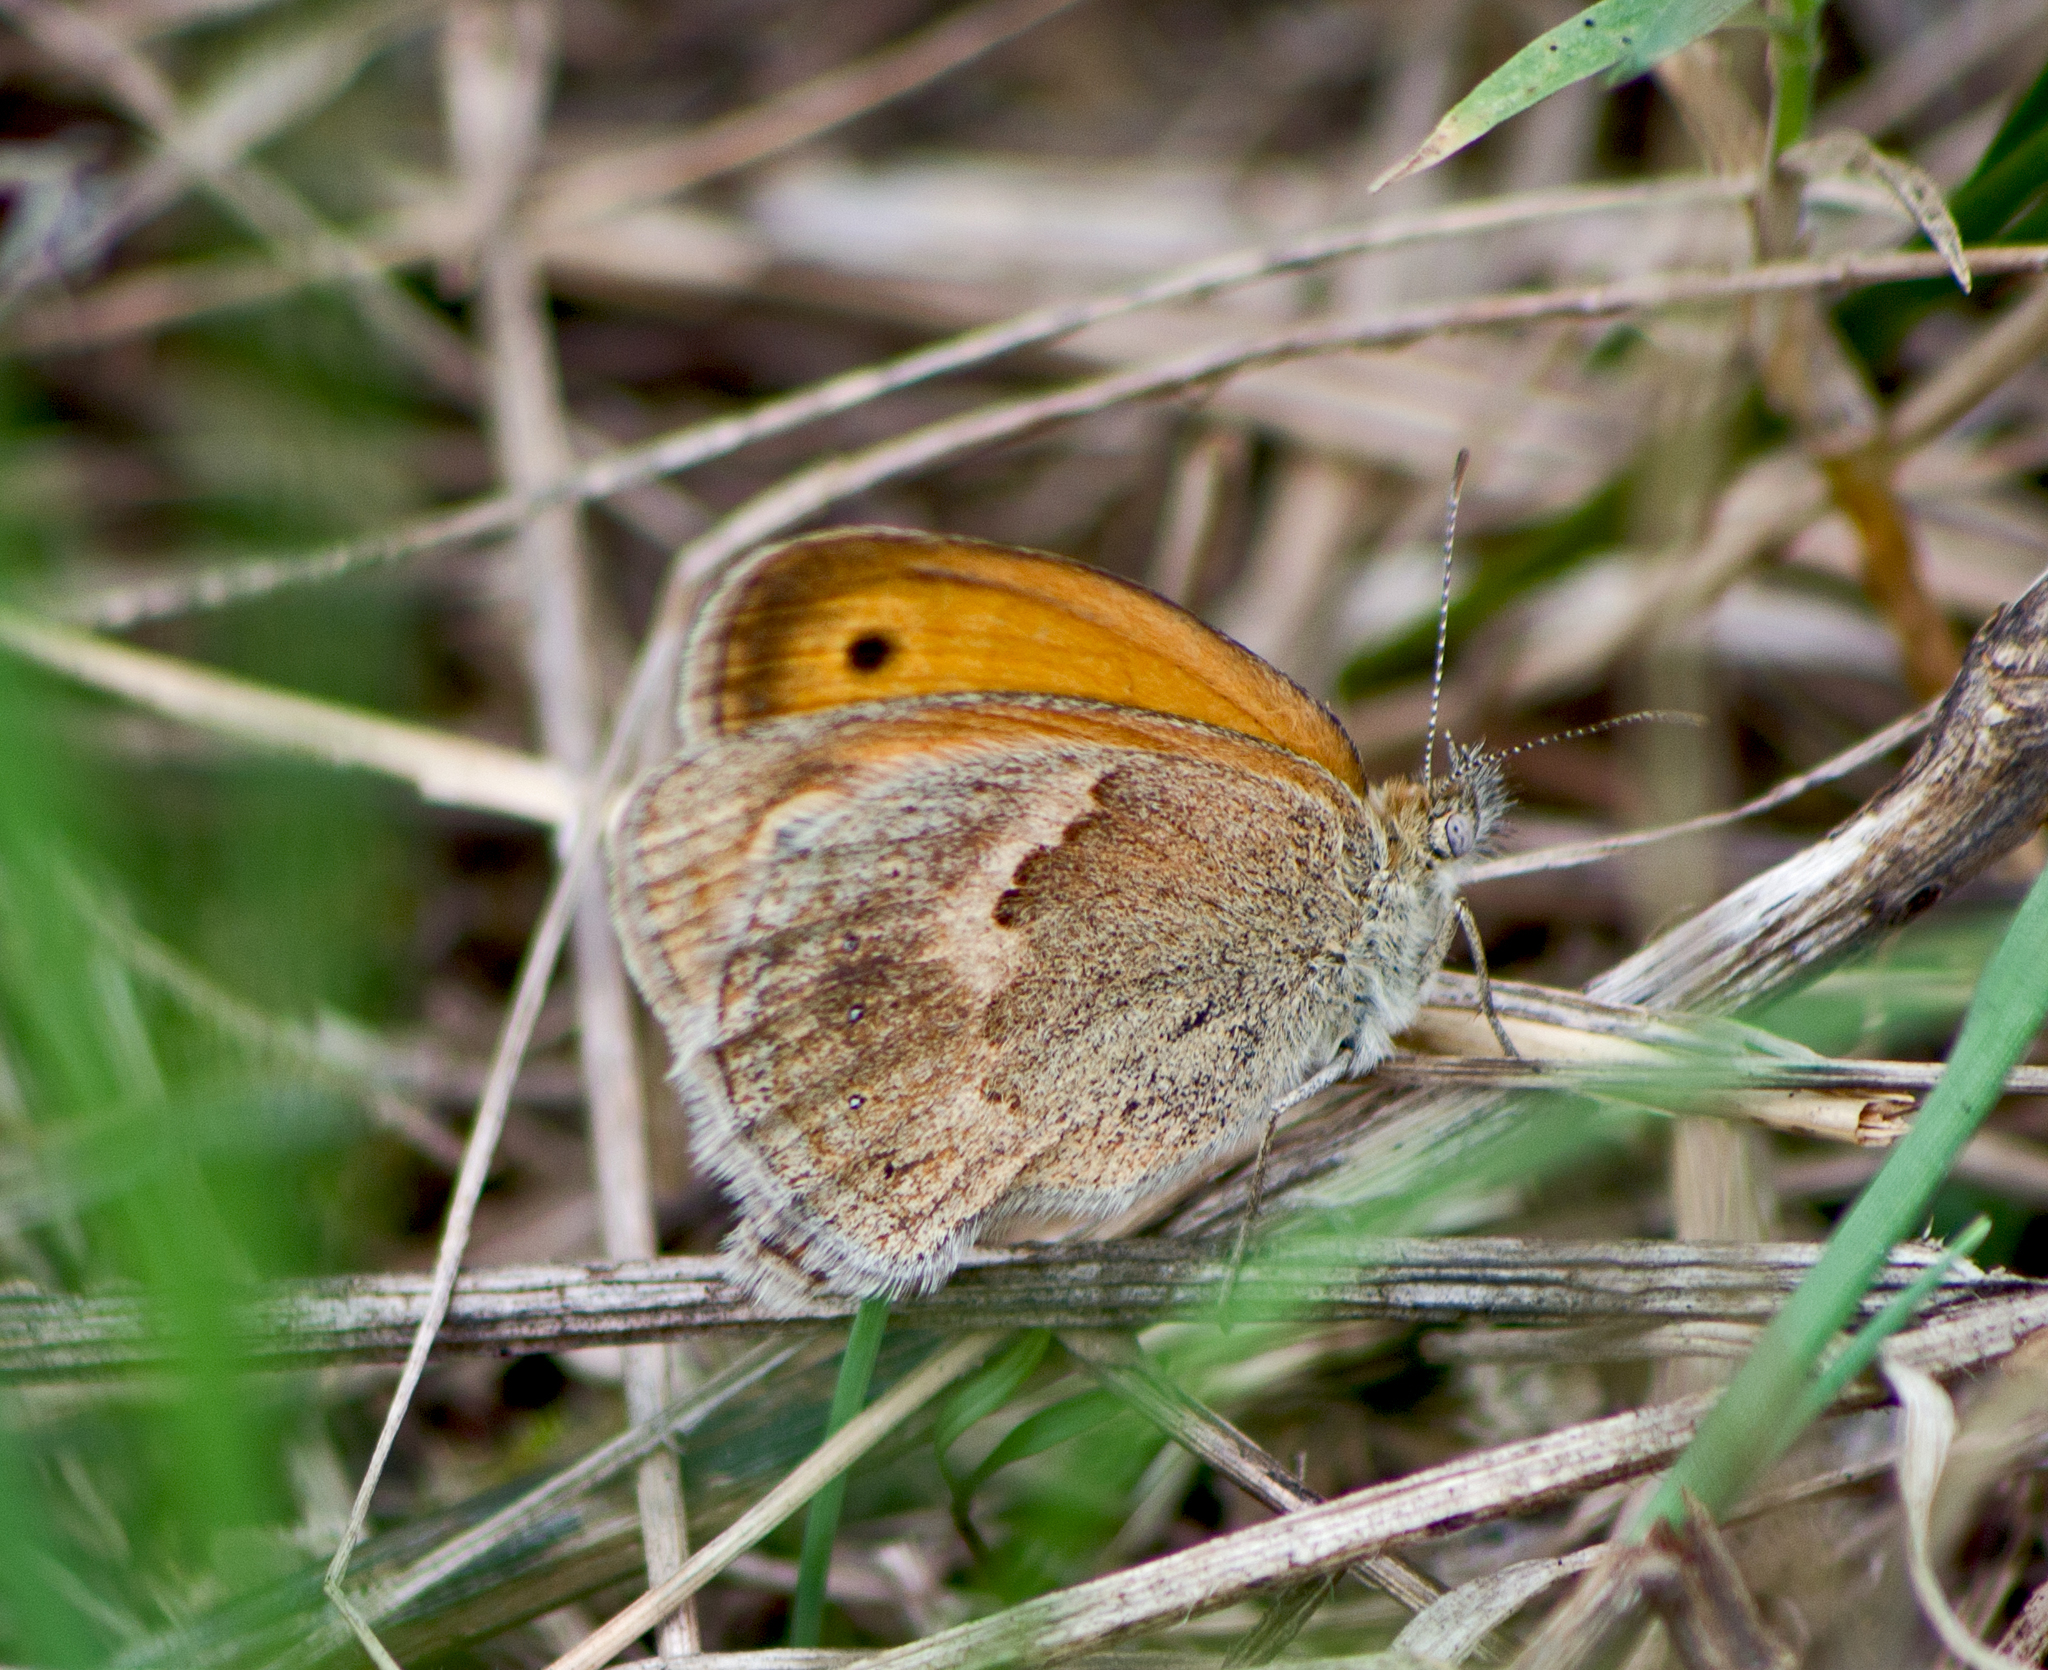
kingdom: Animalia
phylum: Arthropoda
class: Insecta
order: Lepidoptera
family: Nymphalidae
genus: Coenonympha
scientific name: Coenonympha pamphilus
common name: Small heath
